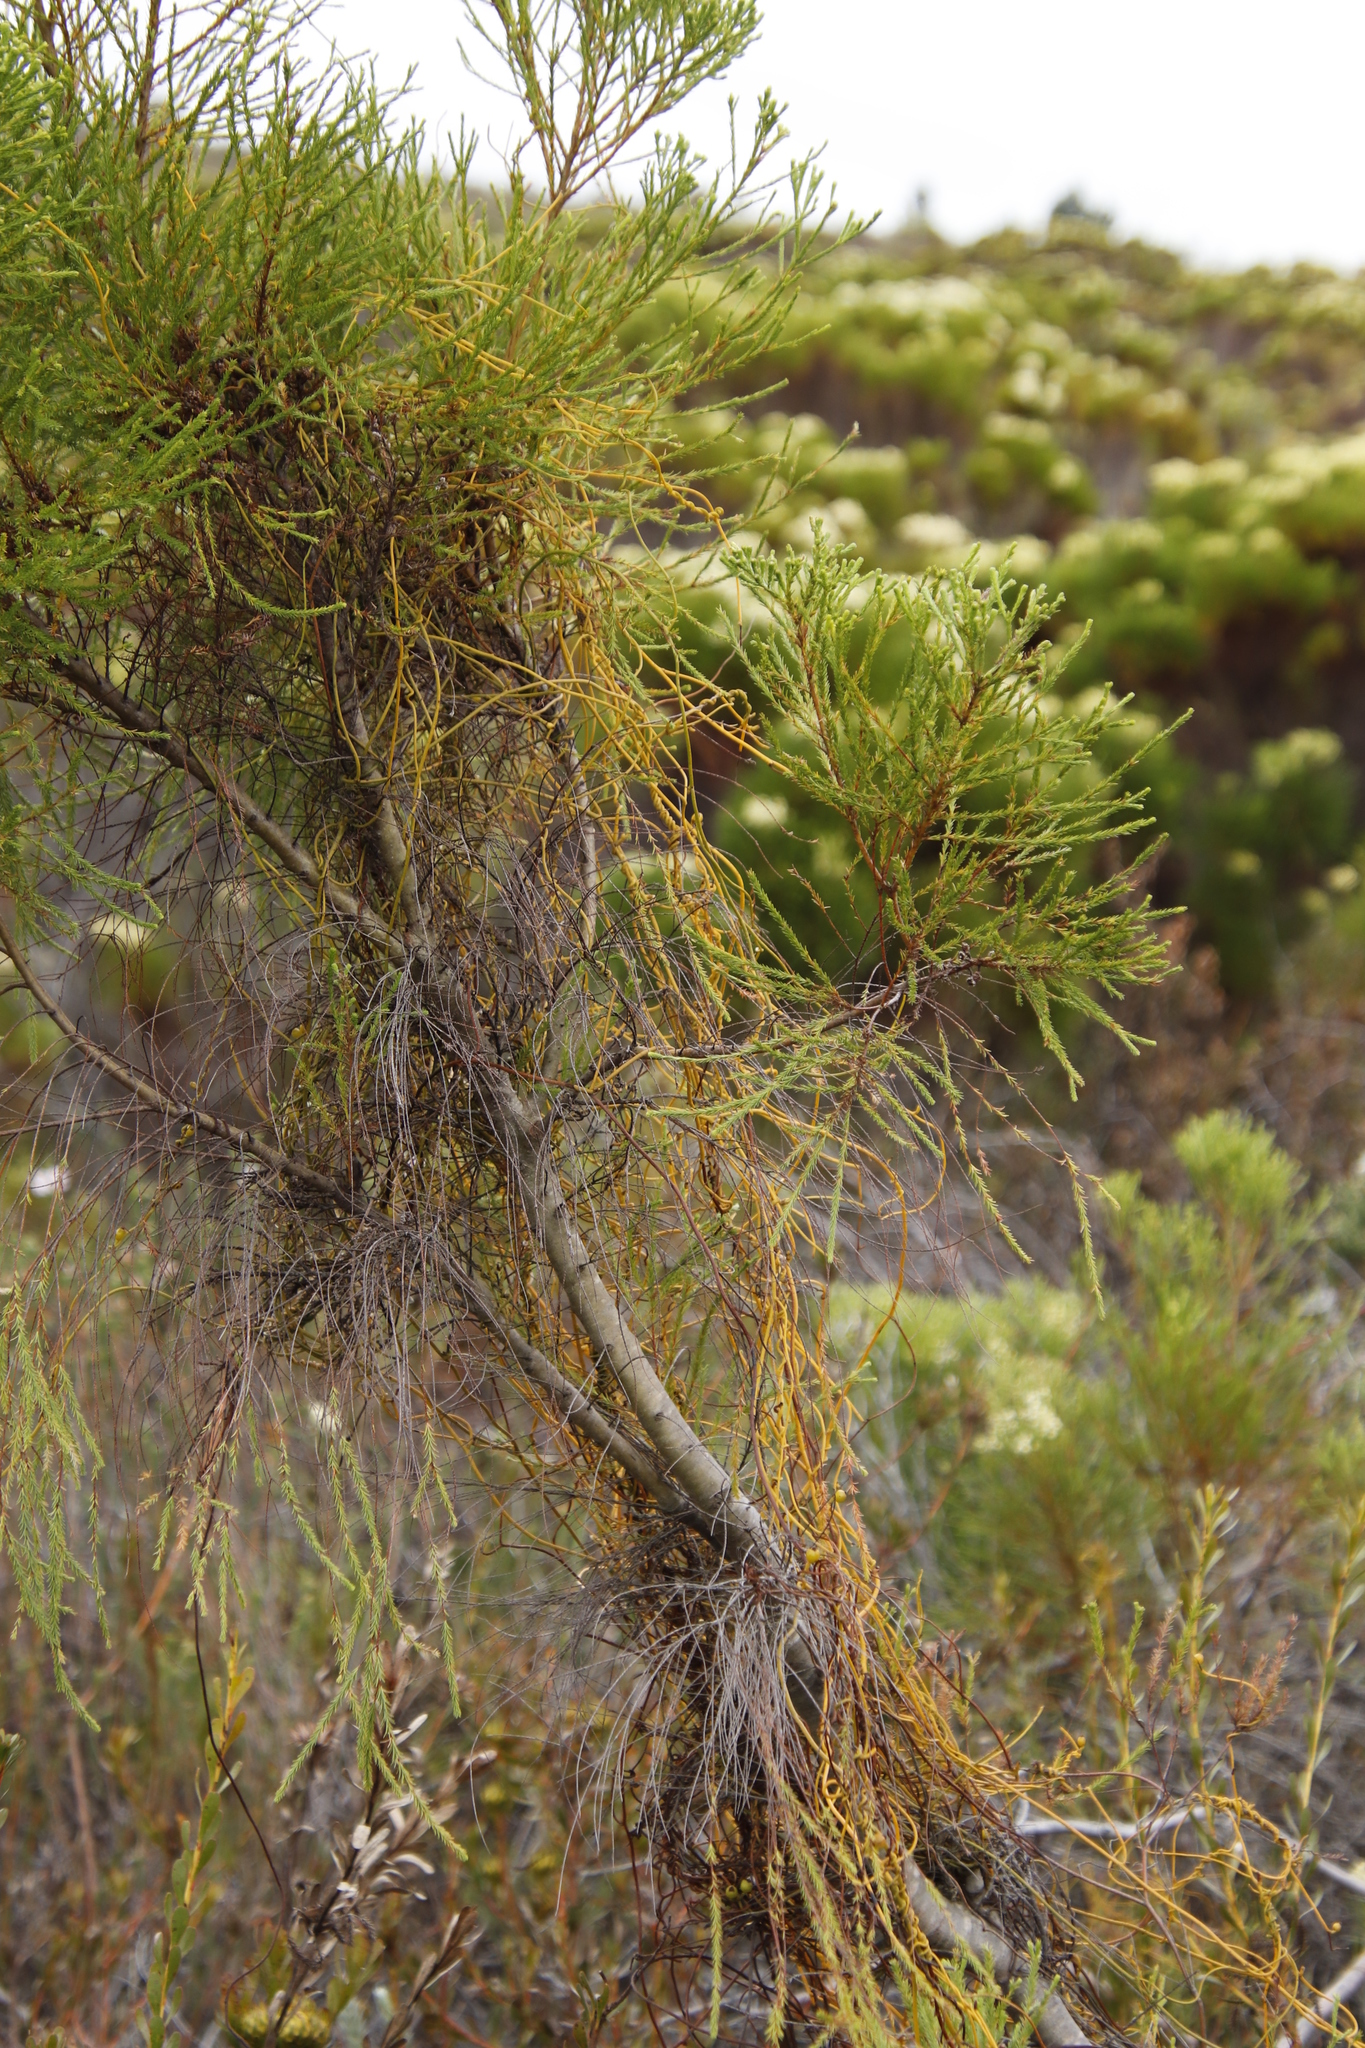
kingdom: Plantae
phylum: Tracheophyta
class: Magnoliopsida
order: Laurales
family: Lauraceae
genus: Cassytha
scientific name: Cassytha ciliolata
